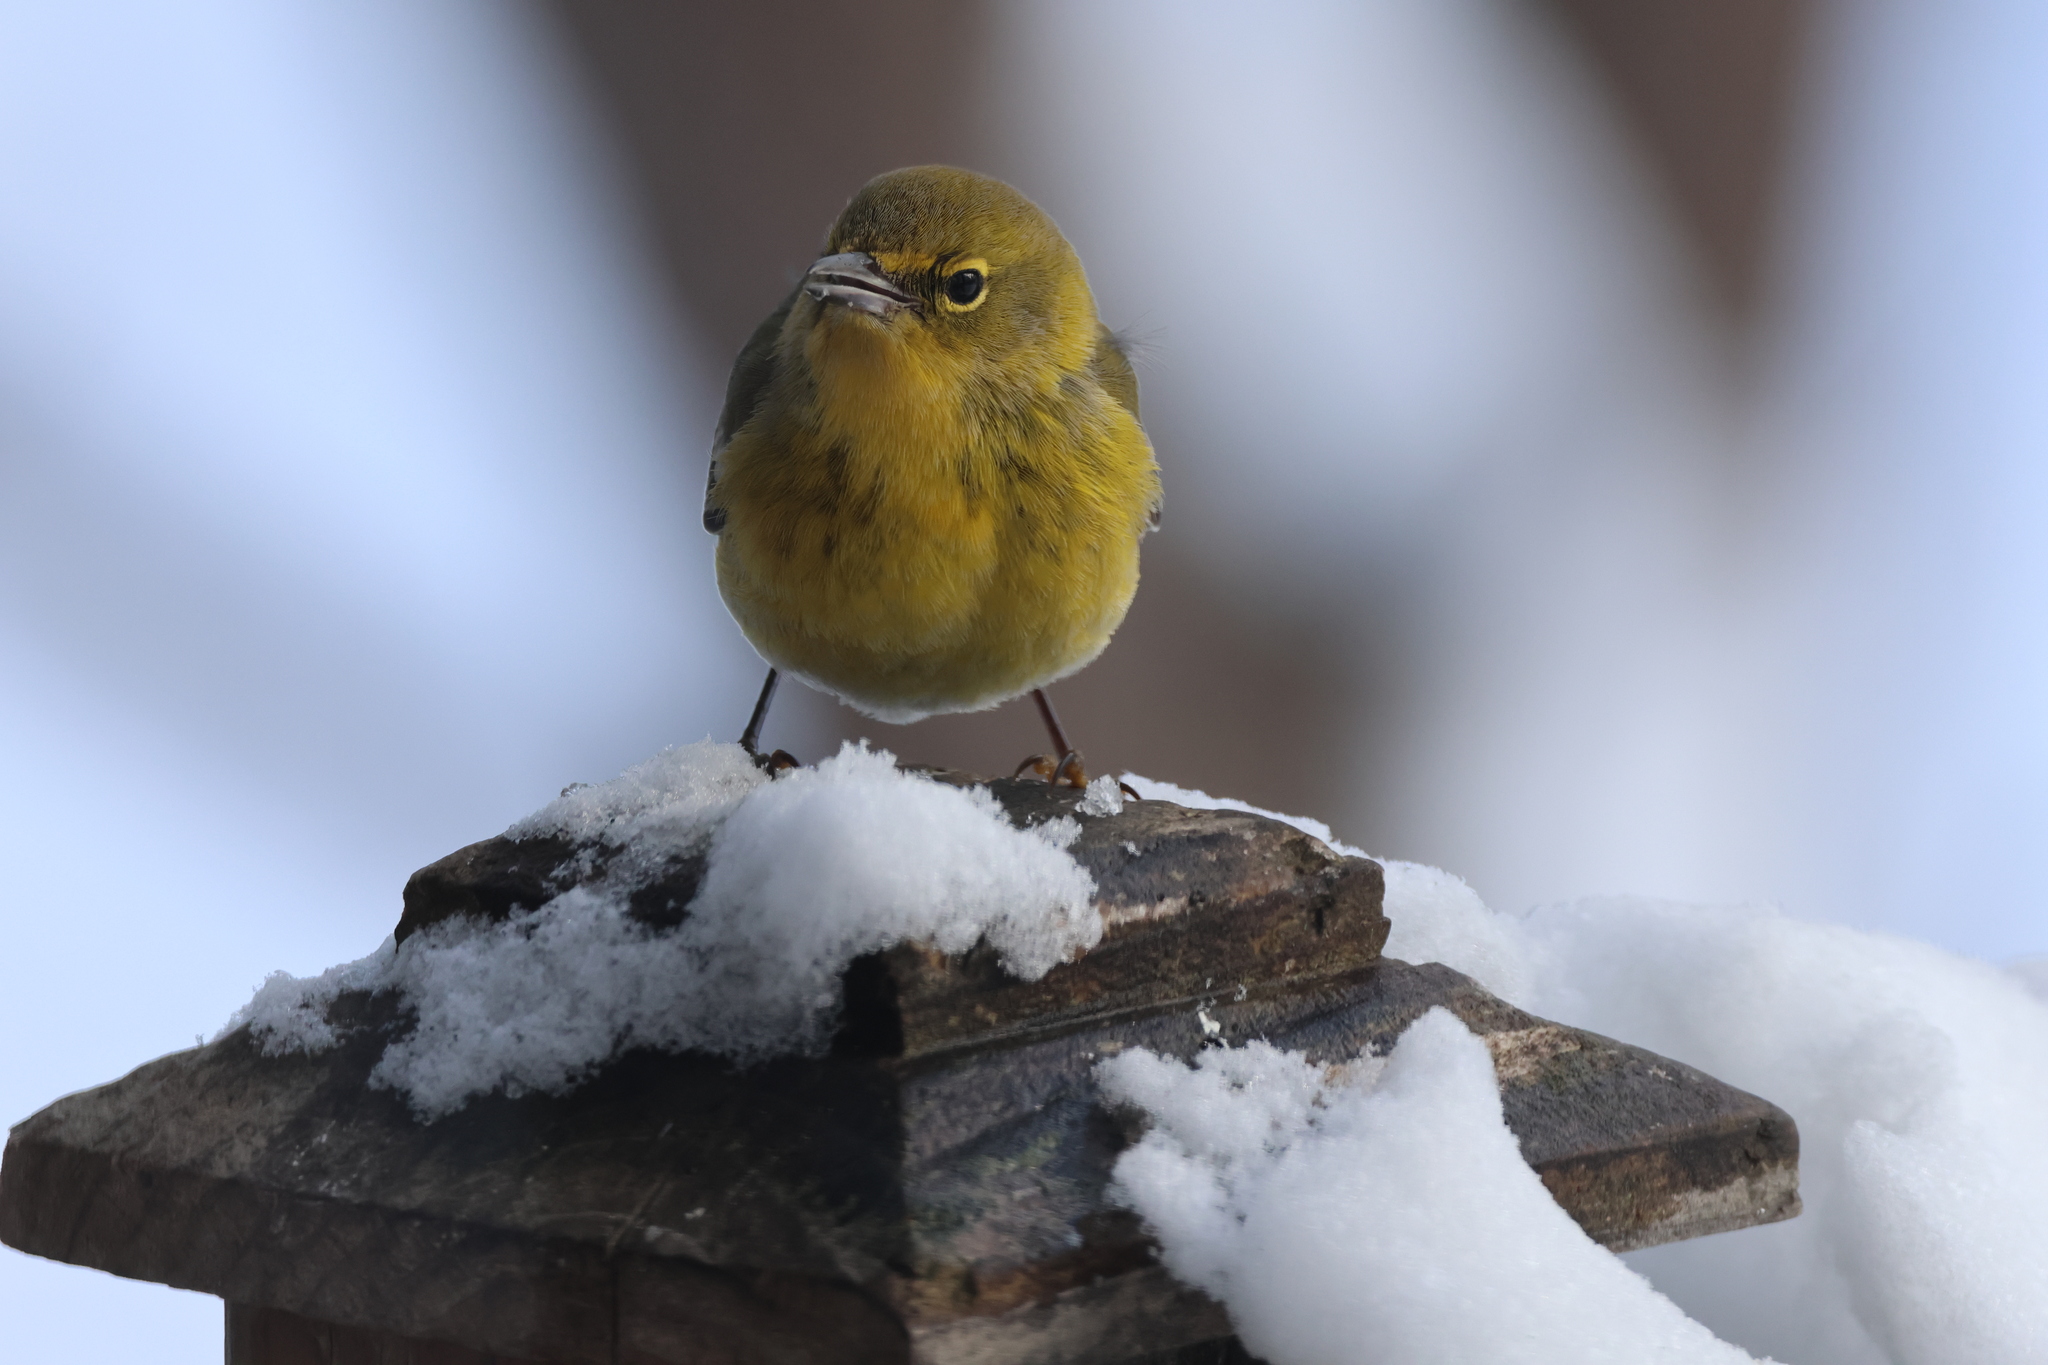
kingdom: Animalia
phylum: Chordata
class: Aves
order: Passeriformes
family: Parulidae
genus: Setophaga
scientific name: Setophaga pinus
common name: Pine warbler
